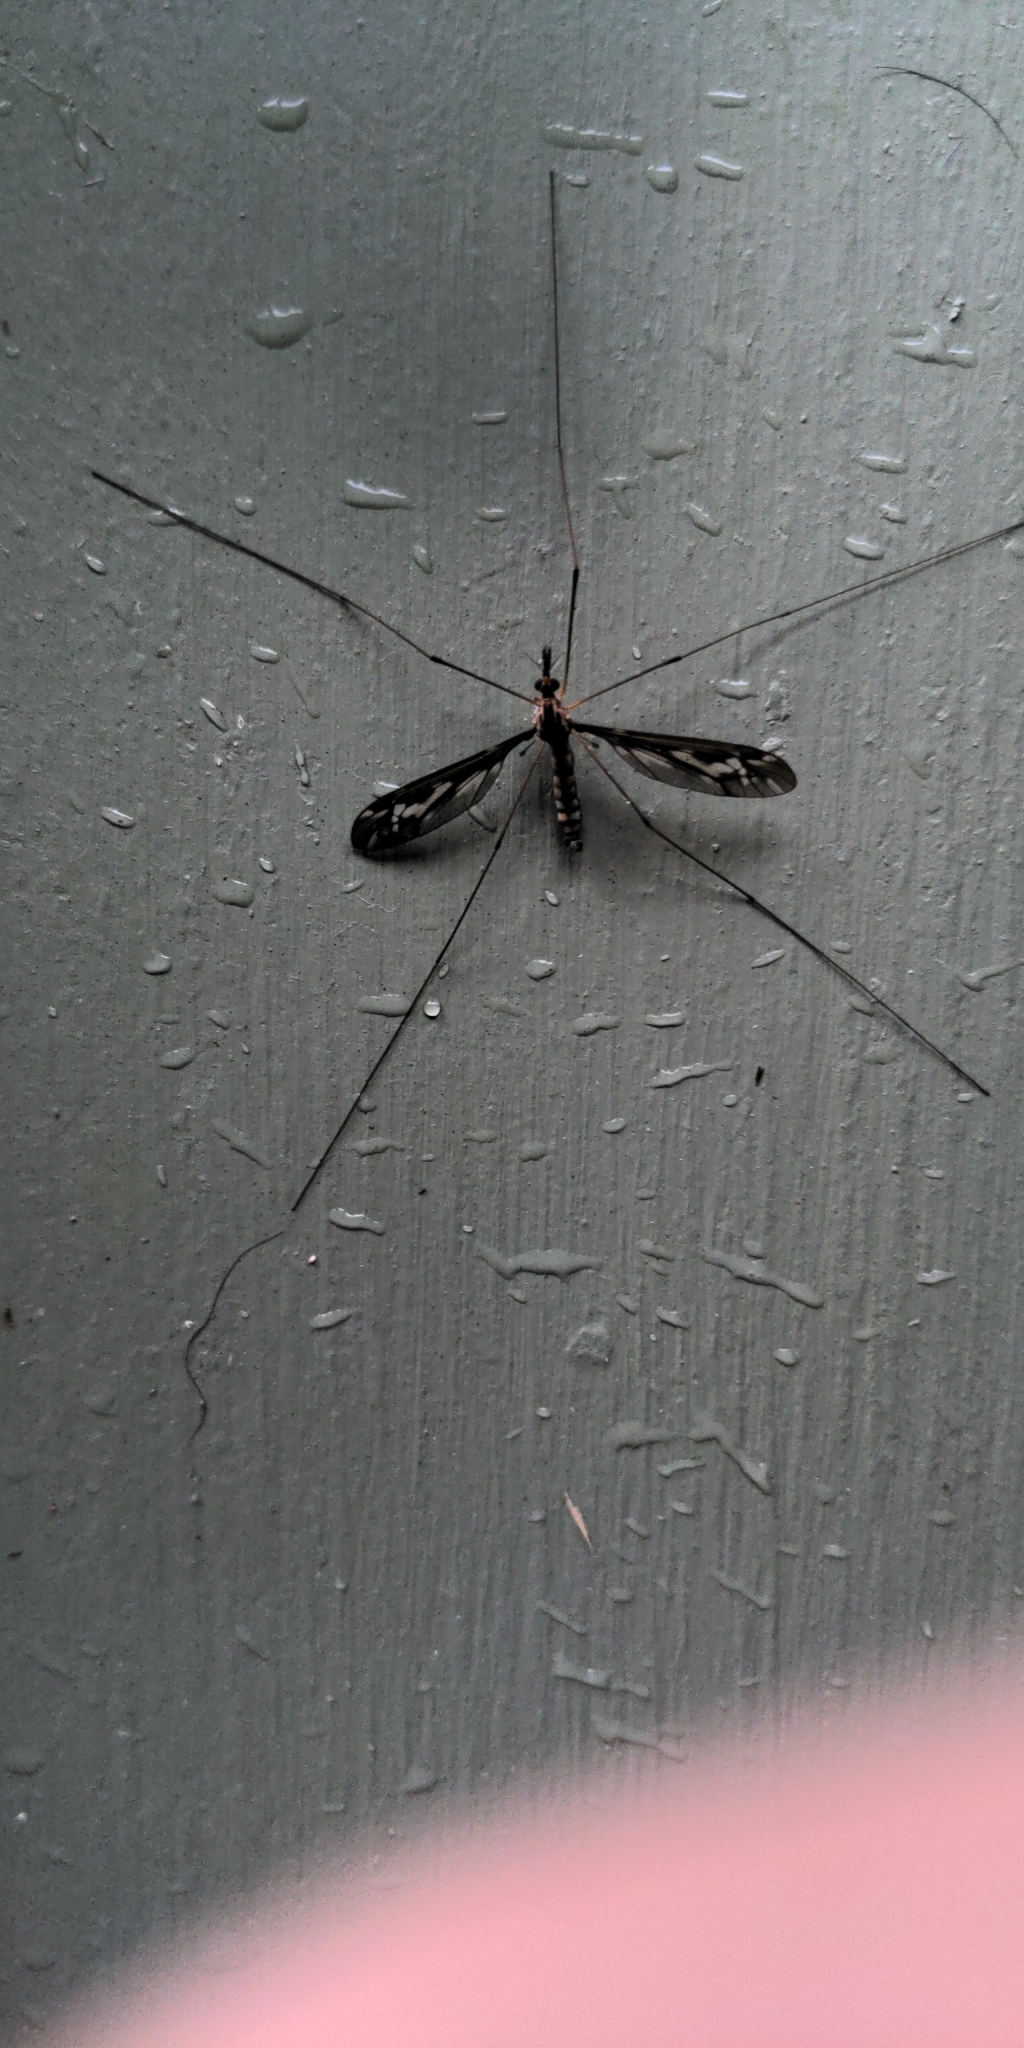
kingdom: Animalia
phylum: Arthropoda
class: Insecta
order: Diptera
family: Tipulidae
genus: Leptotarsus
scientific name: Leptotarsus huttoni
